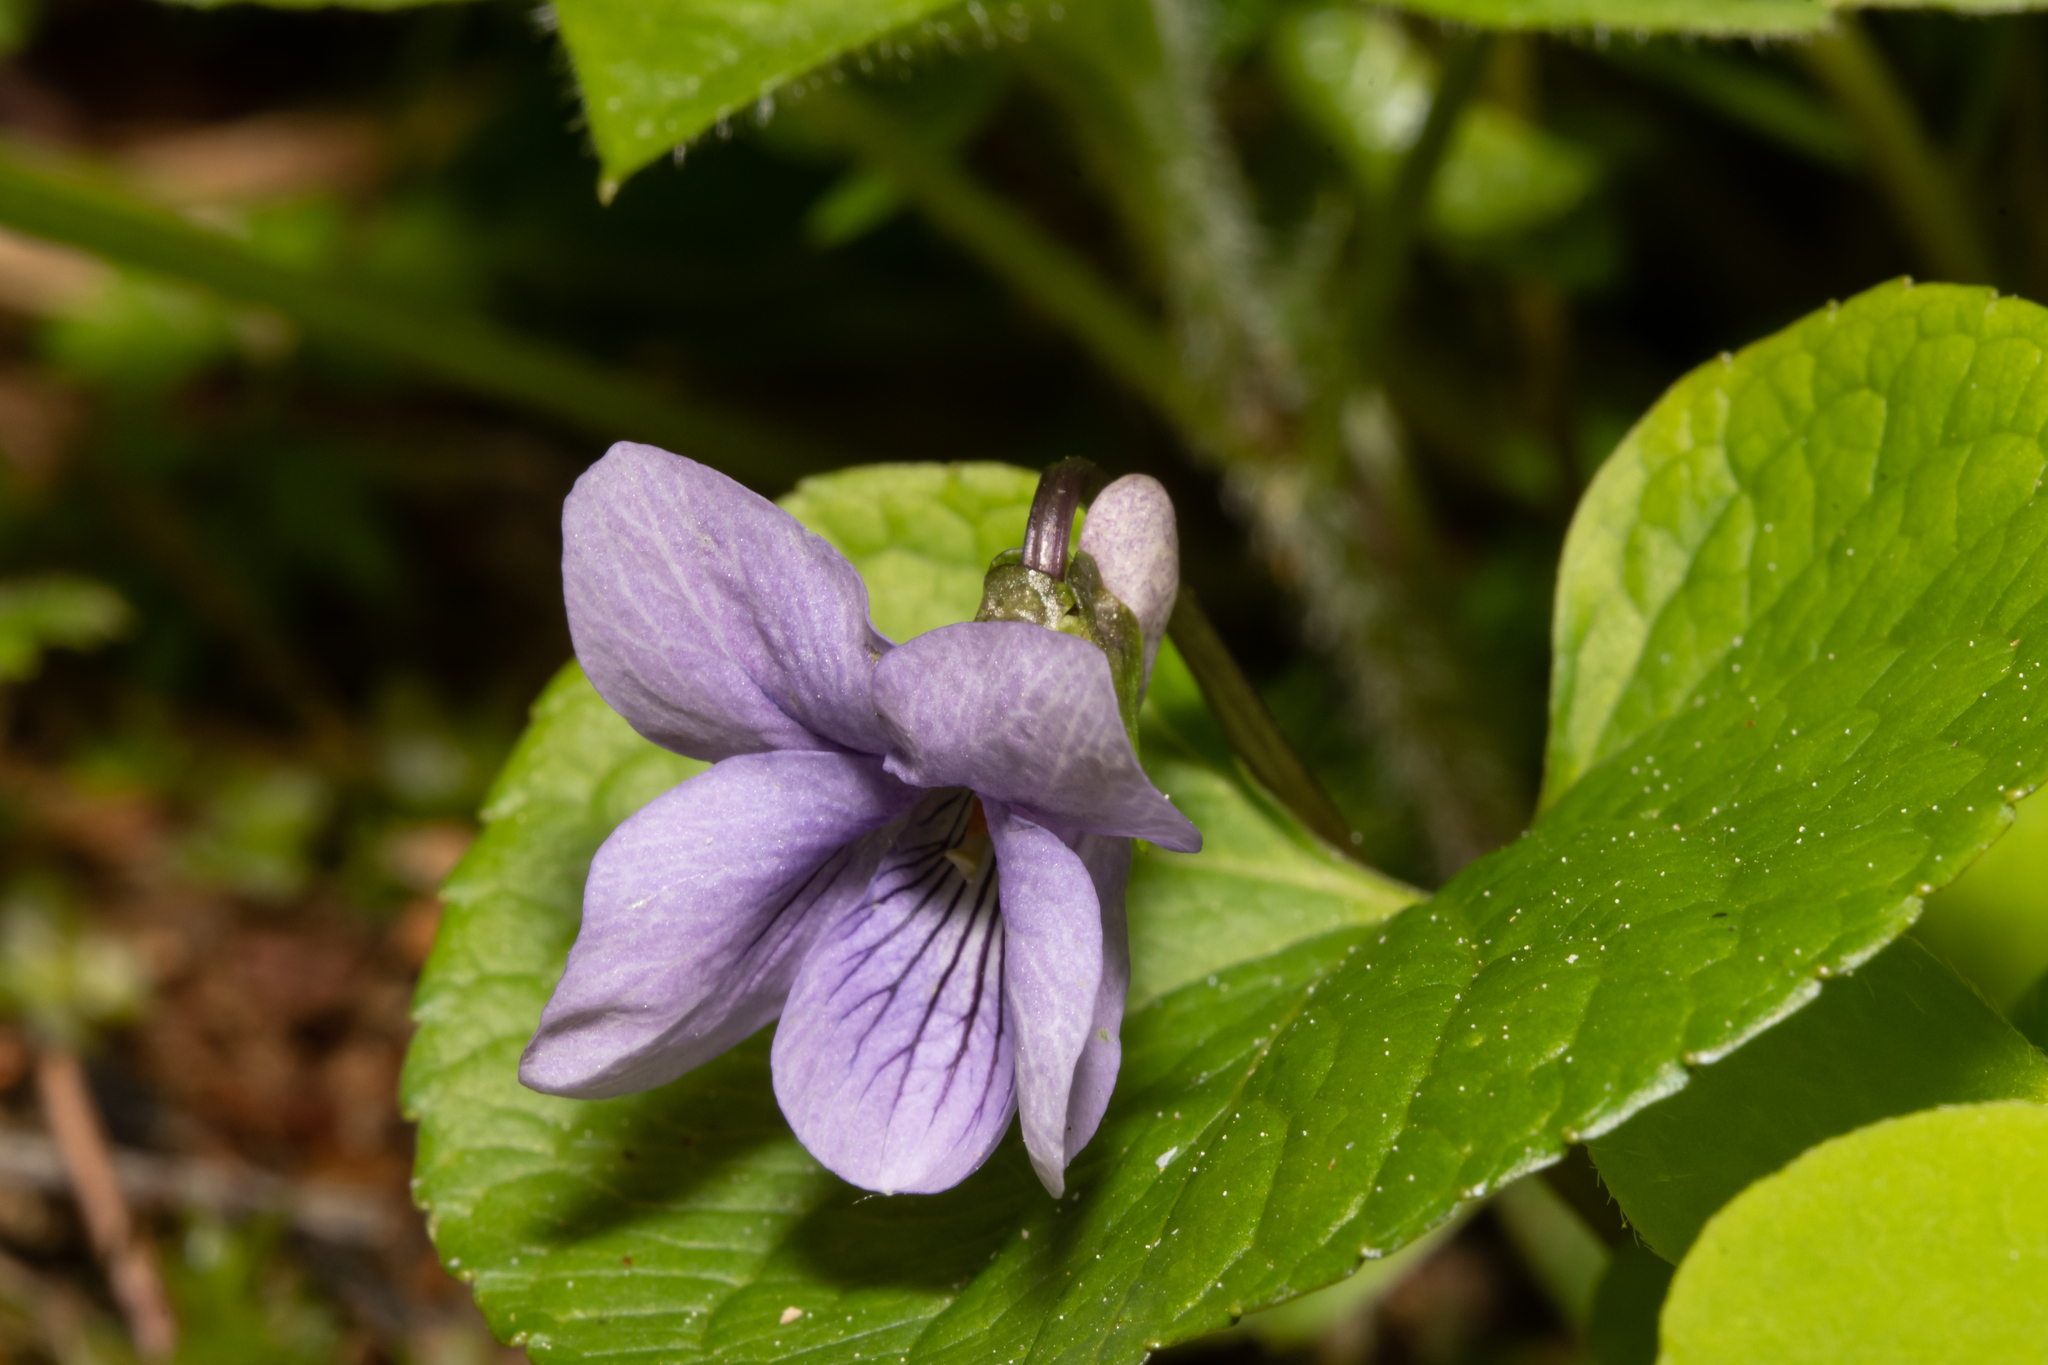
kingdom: Plantae
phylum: Tracheophyta
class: Magnoliopsida
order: Malpighiales
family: Violaceae
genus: Viola
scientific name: Viola epipsila
